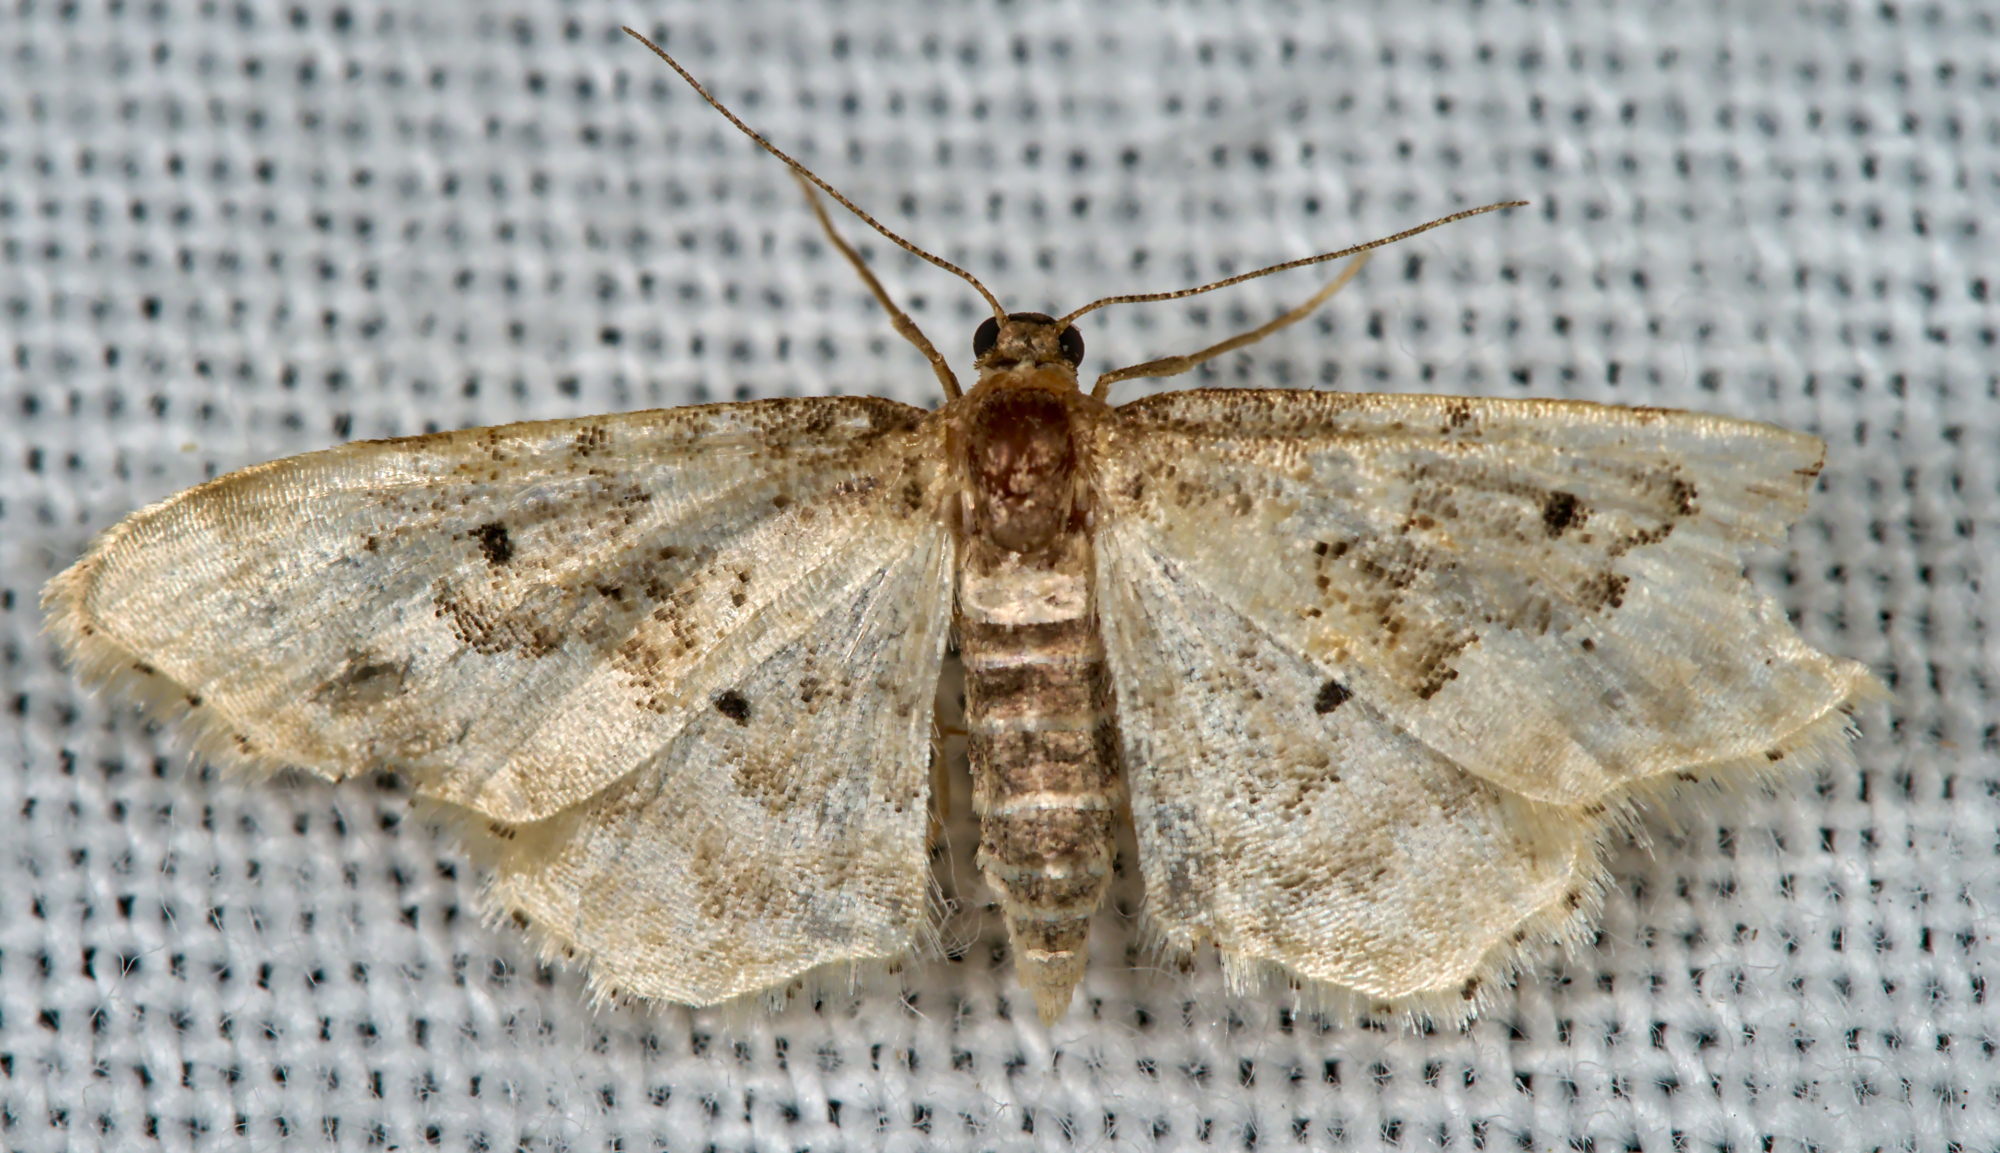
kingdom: Animalia
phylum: Arthropoda
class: Insecta
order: Lepidoptera
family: Geometridae
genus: Idaea
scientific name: Idaea rusticata
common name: Least carpet
